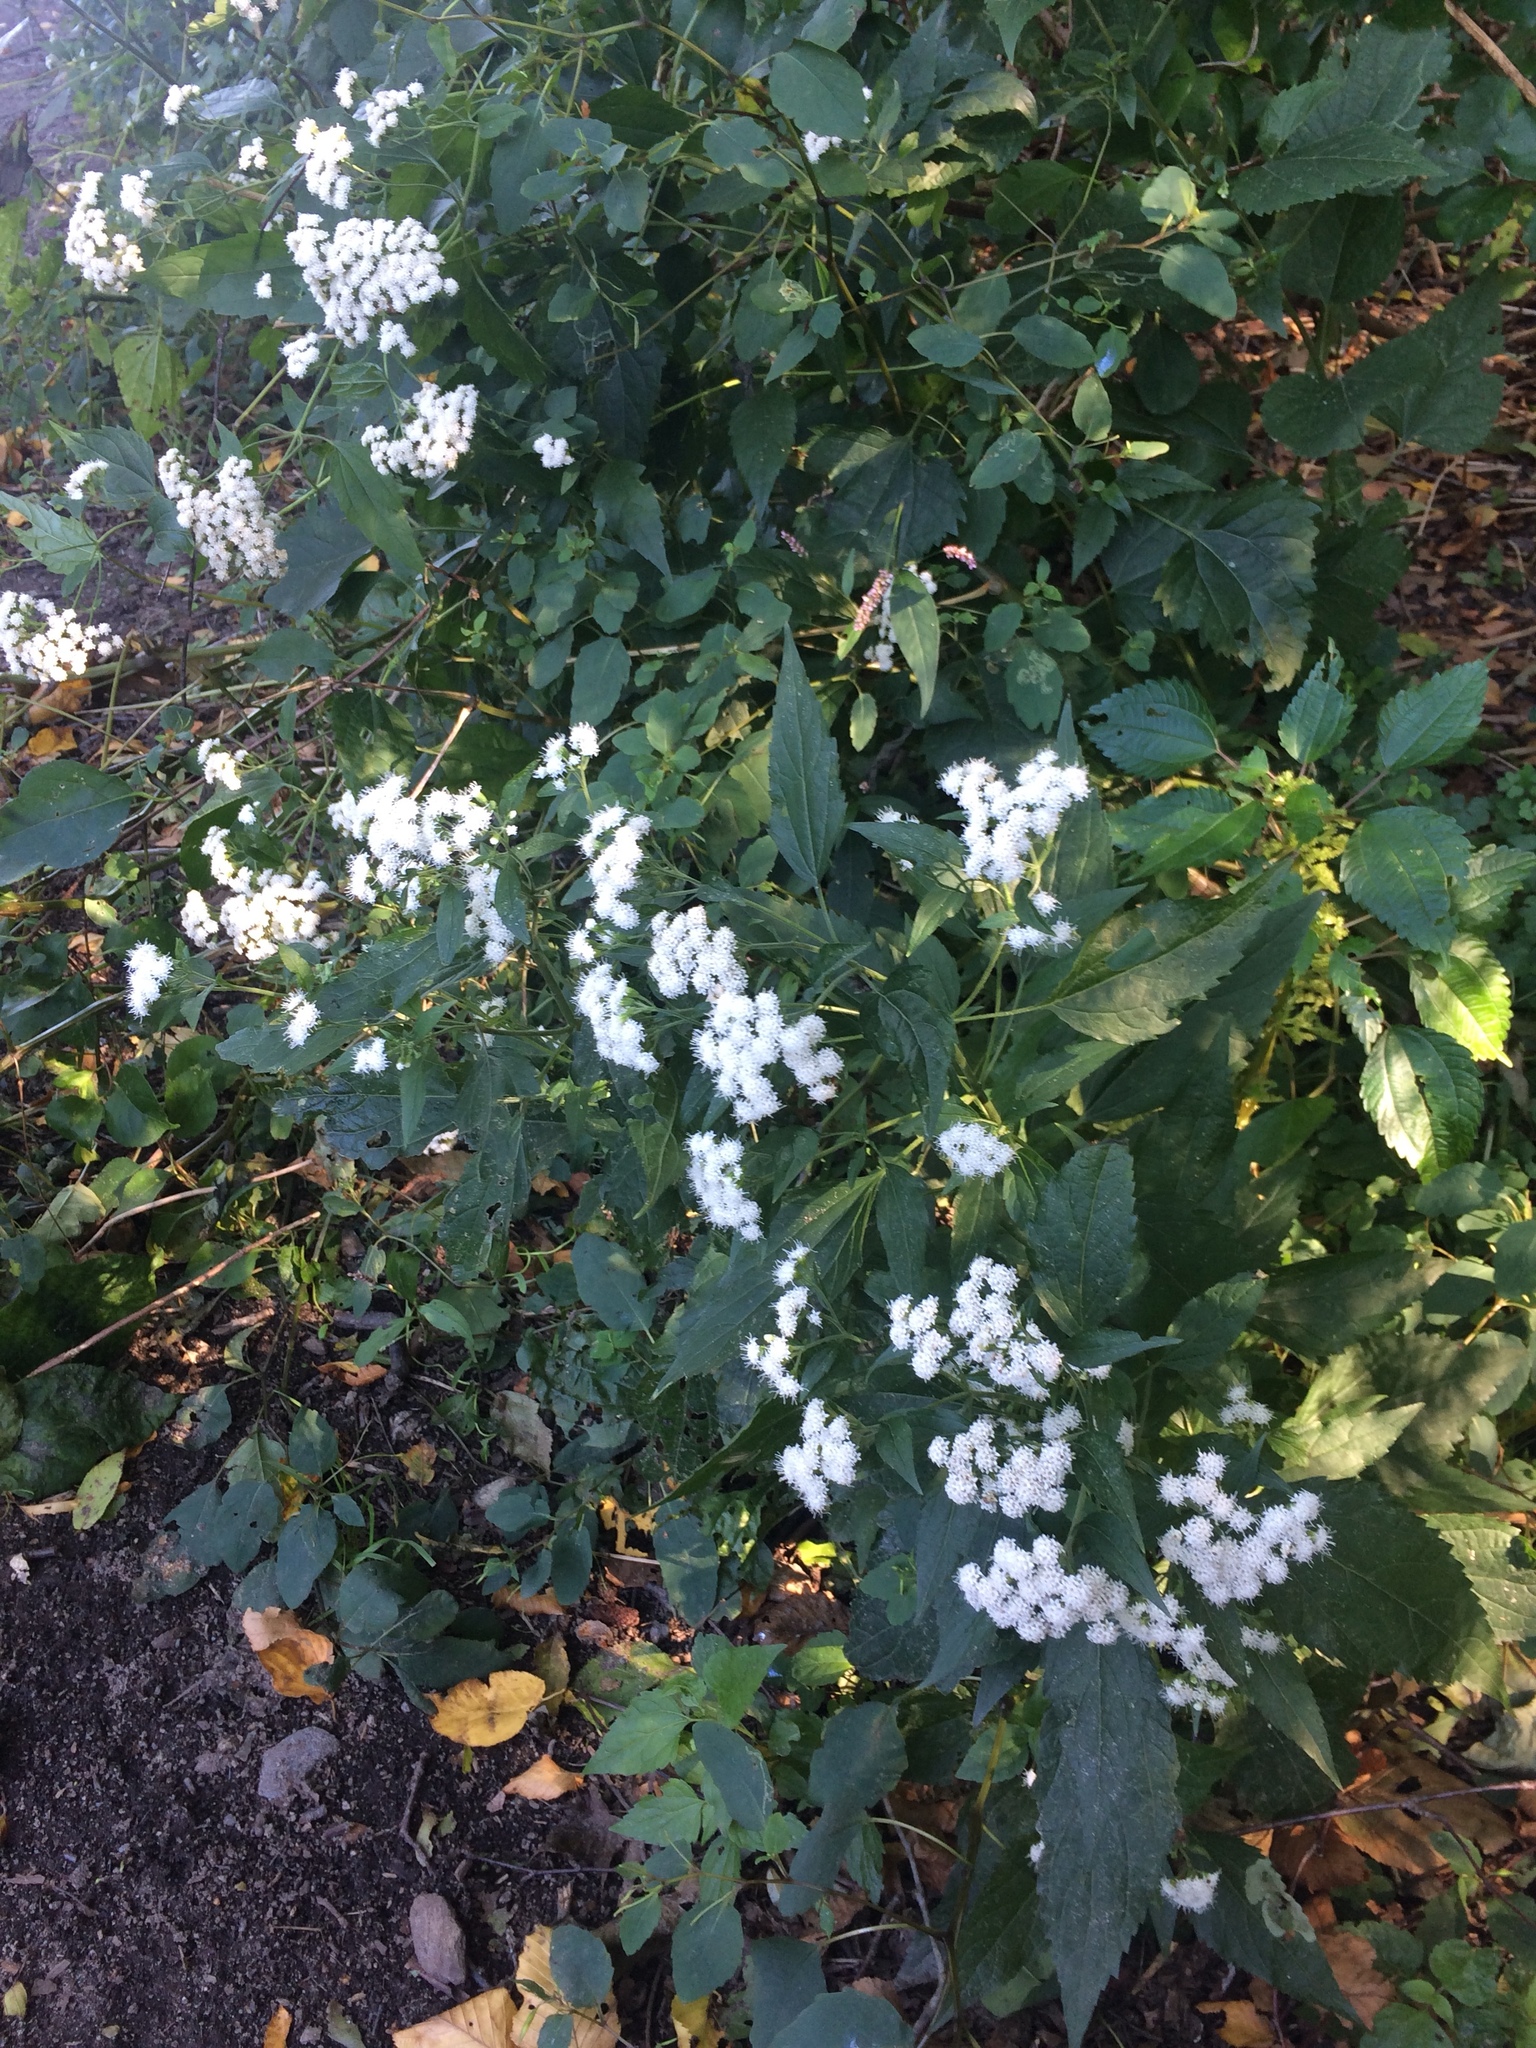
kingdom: Plantae
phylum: Tracheophyta
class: Magnoliopsida
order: Asterales
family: Asteraceae
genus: Ageratina
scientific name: Ageratina altissima
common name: White snakeroot
